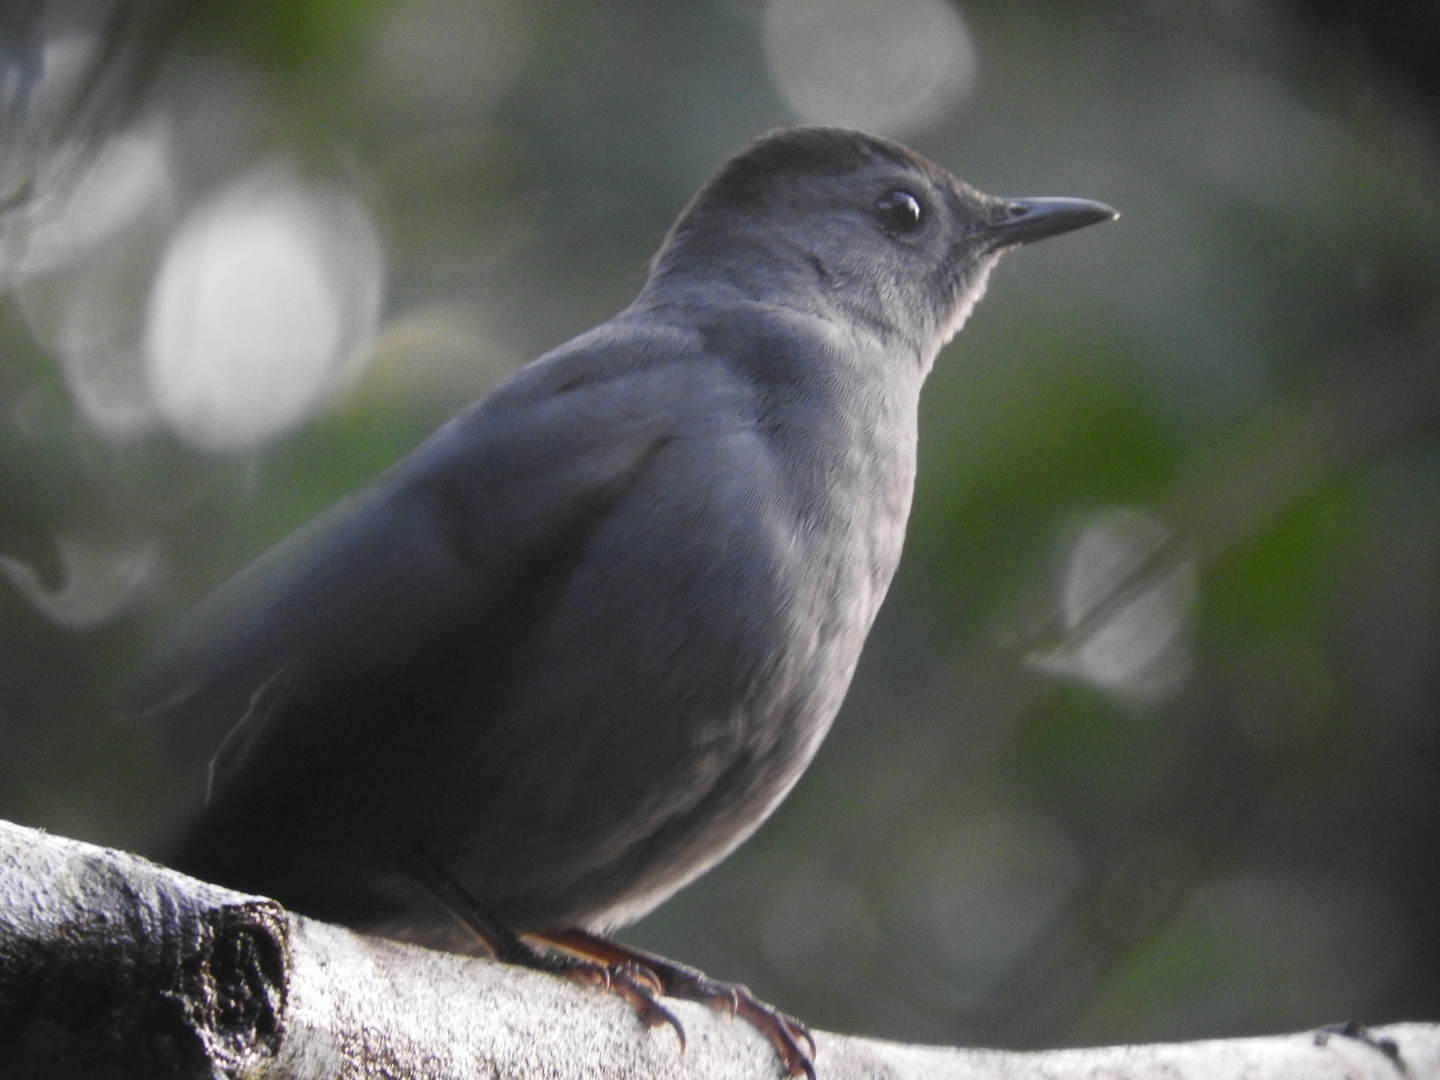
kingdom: Animalia
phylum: Chordata
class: Aves
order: Passeriformes
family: Mimidae
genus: Dumetella
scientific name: Dumetella carolinensis
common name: Gray catbird
